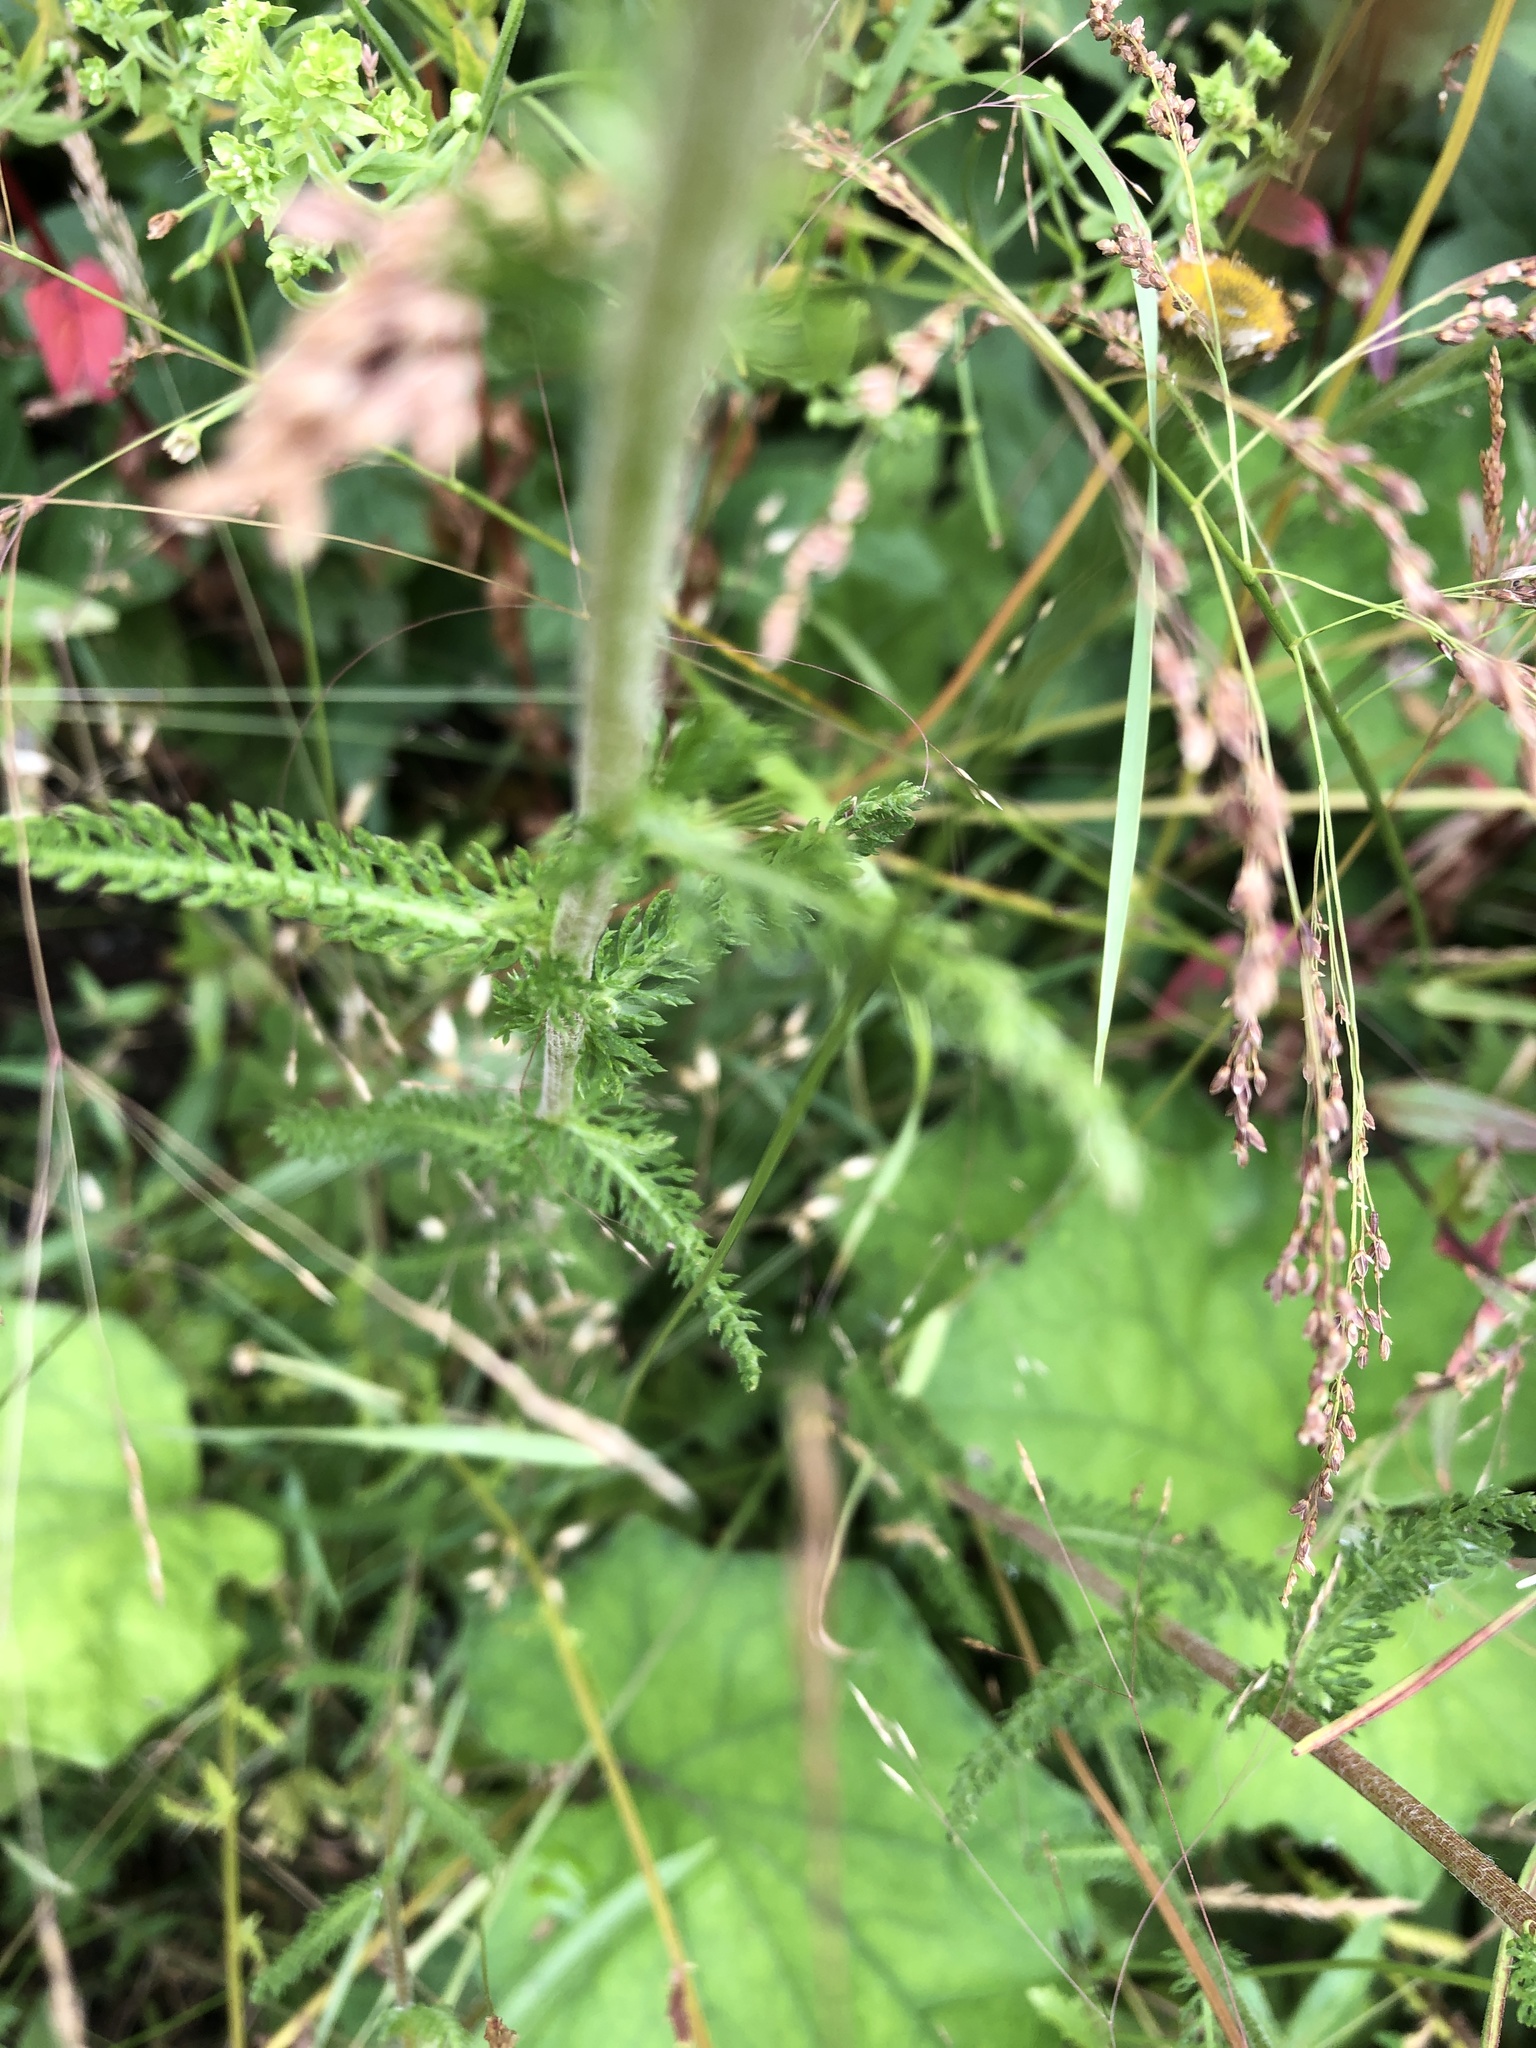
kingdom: Plantae
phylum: Tracheophyta
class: Magnoliopsida
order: Asterales
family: Asteraceae
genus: Achillea
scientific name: Achillea millefolium
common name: Yarrow
